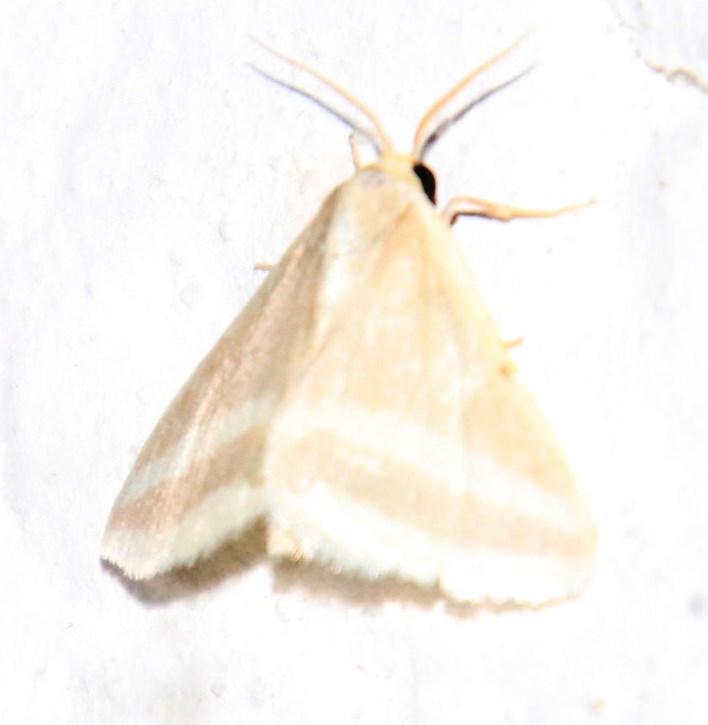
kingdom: Animalia
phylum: Arthropoda
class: Insecta
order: Lepidoptera
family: Geometridae
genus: Mixocera
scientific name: Mixocera frustratoria
